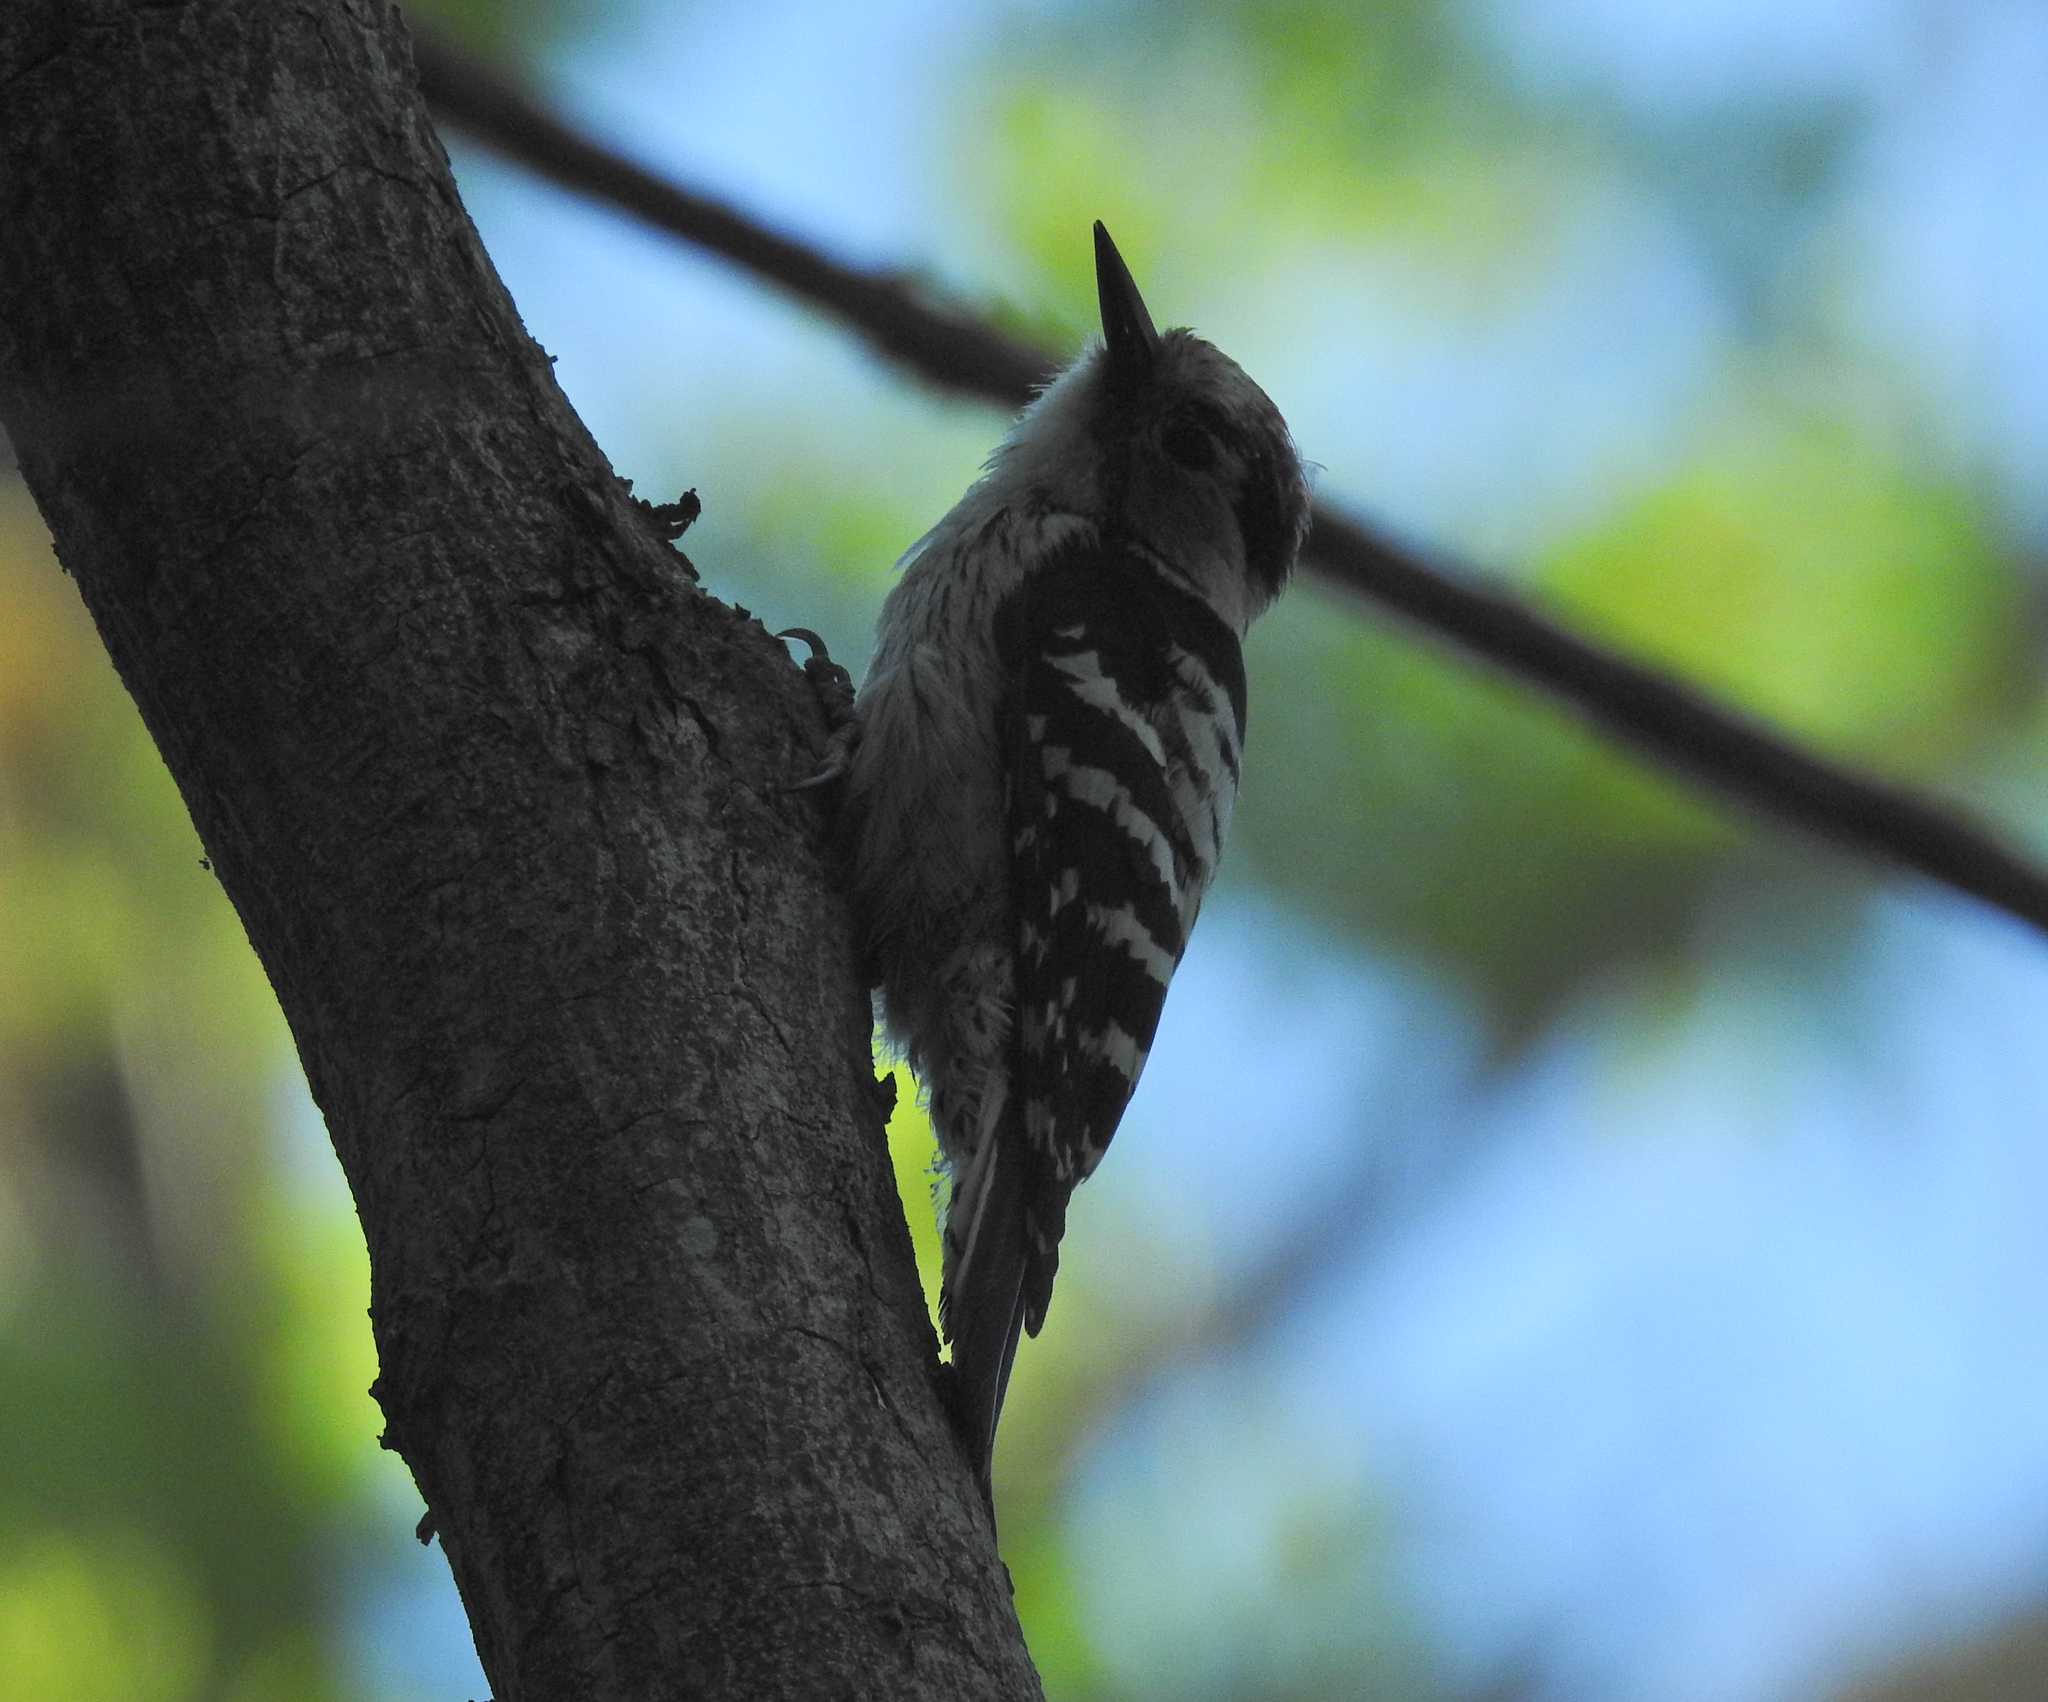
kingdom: Animalia
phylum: Chordata
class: Aves
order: Piciformes
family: Picidae
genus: Dryobates
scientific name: Dryobates minor
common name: Lesser spotted woodpecker
